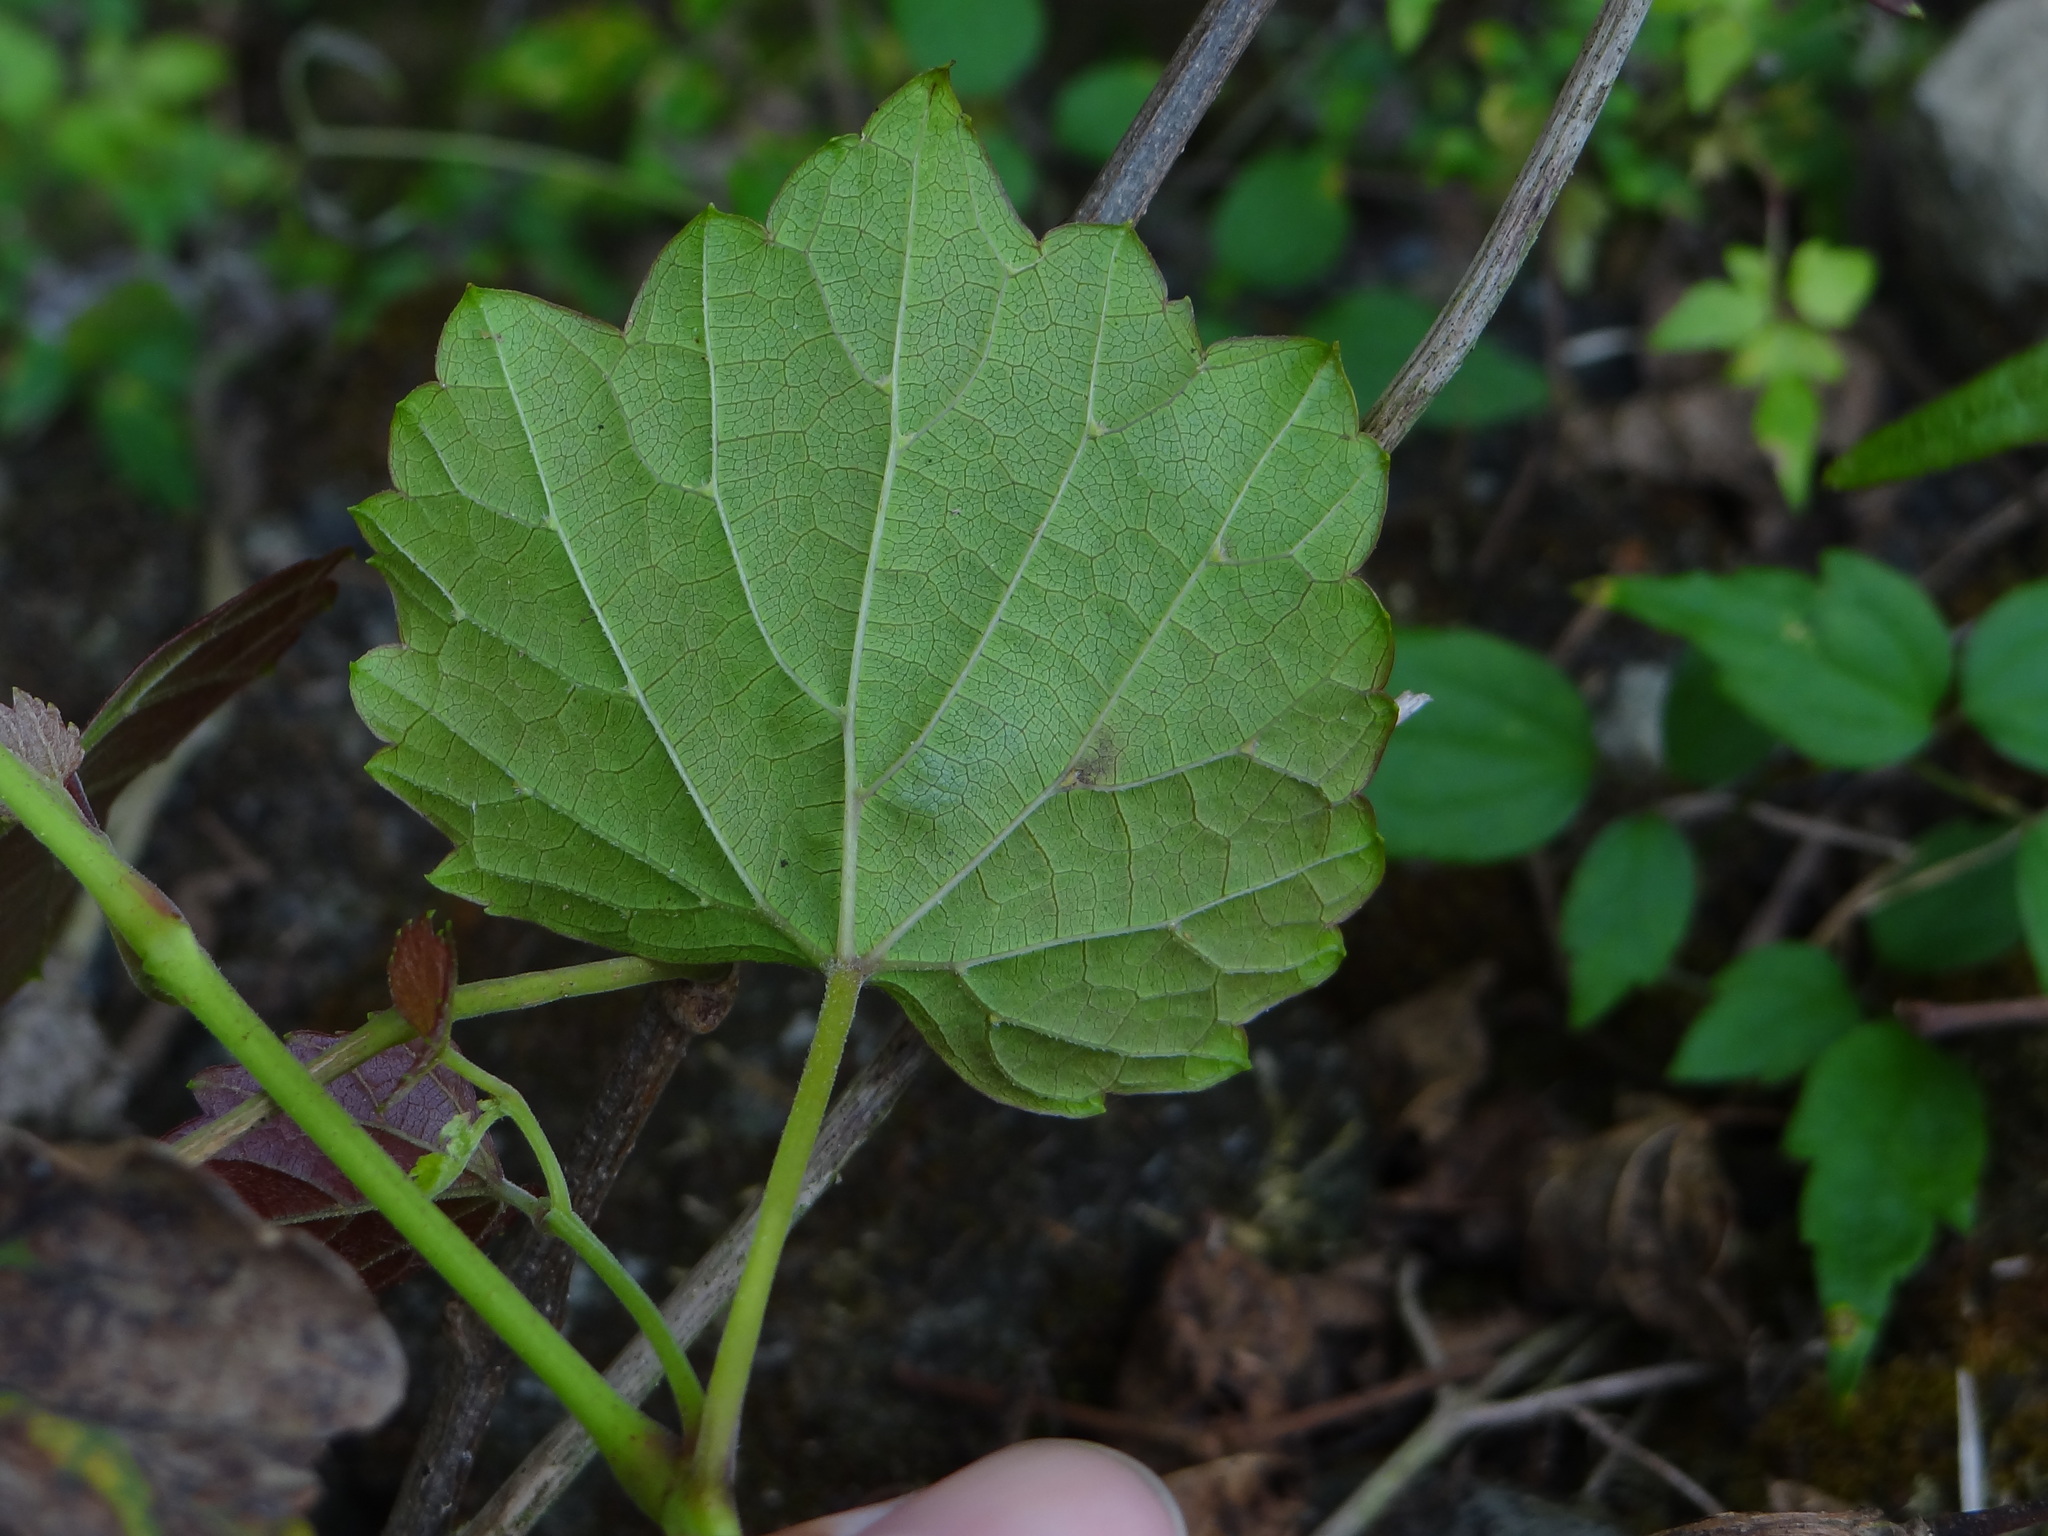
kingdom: Plantae
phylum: Tracheophyta
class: Magnoliopsida
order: Vitales
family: Vitaceae
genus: Ampelopsis
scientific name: Ampelopsis glandulosa
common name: Amur peppervine
